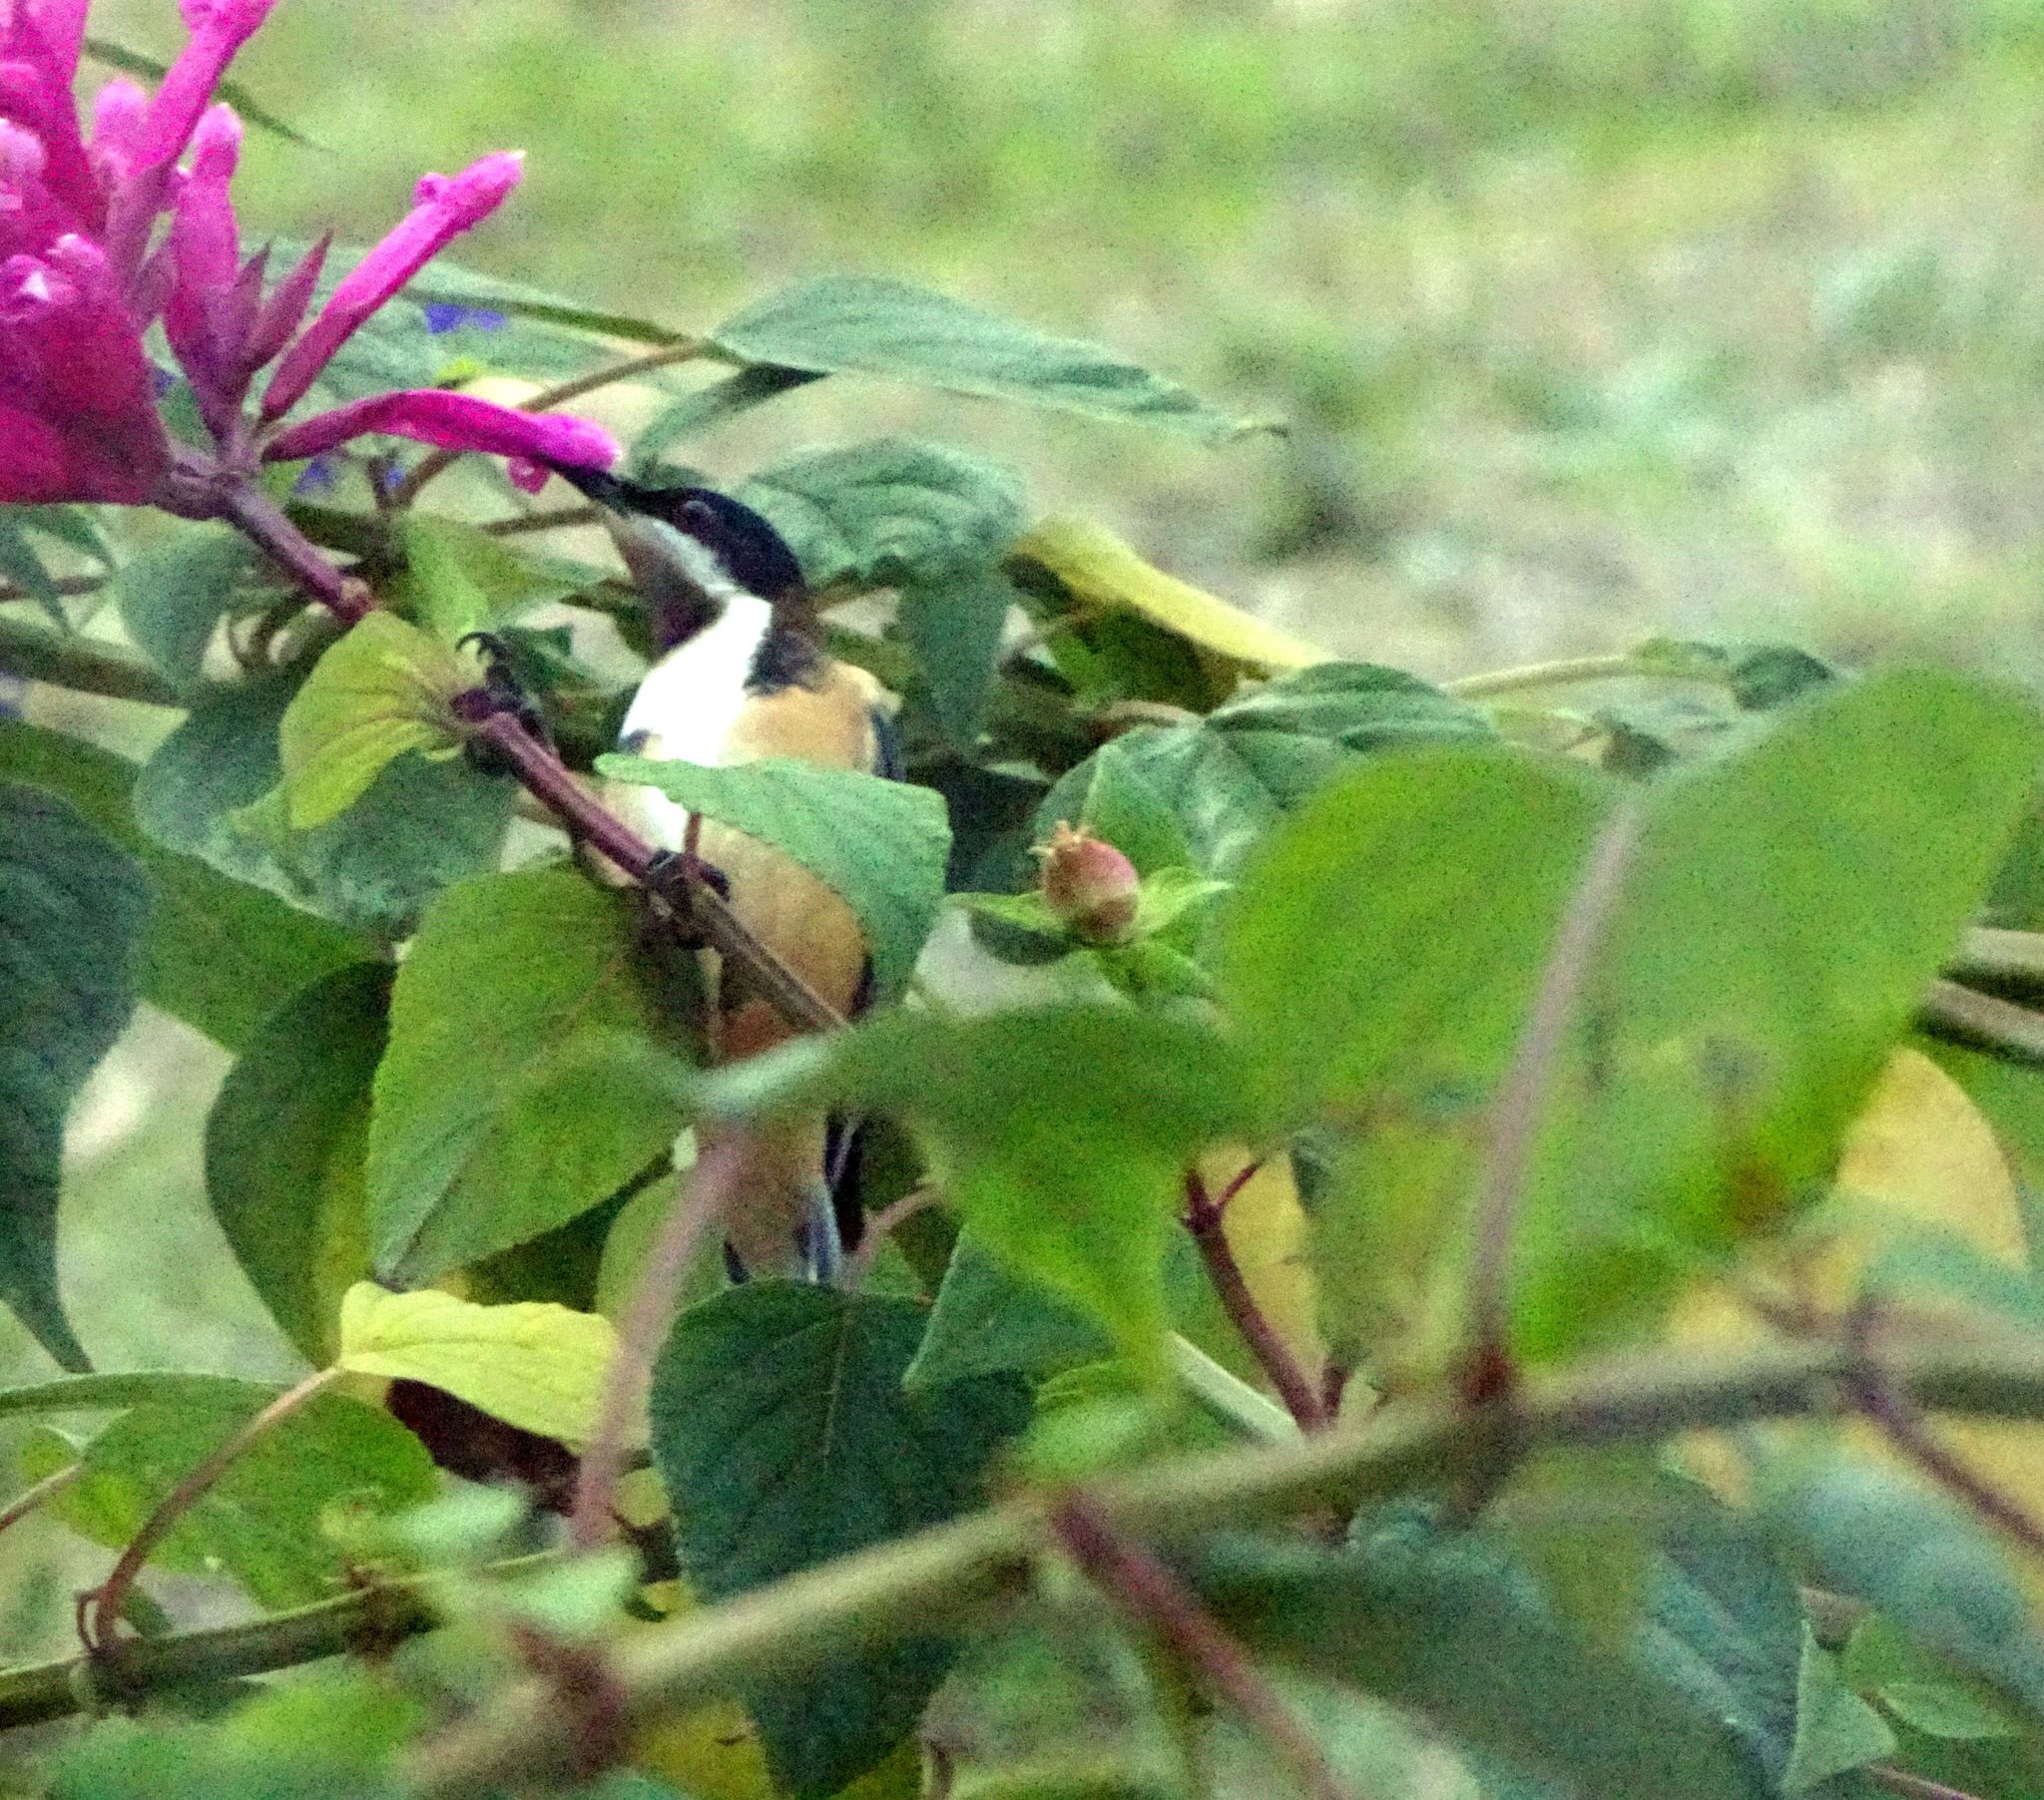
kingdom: Animalia
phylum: Chordata
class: Aves
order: Passeriformes
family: Meliphagidae
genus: Acanthorhynchus
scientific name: Acanthorhynchus tenuirostris
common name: Eastern spinebill
